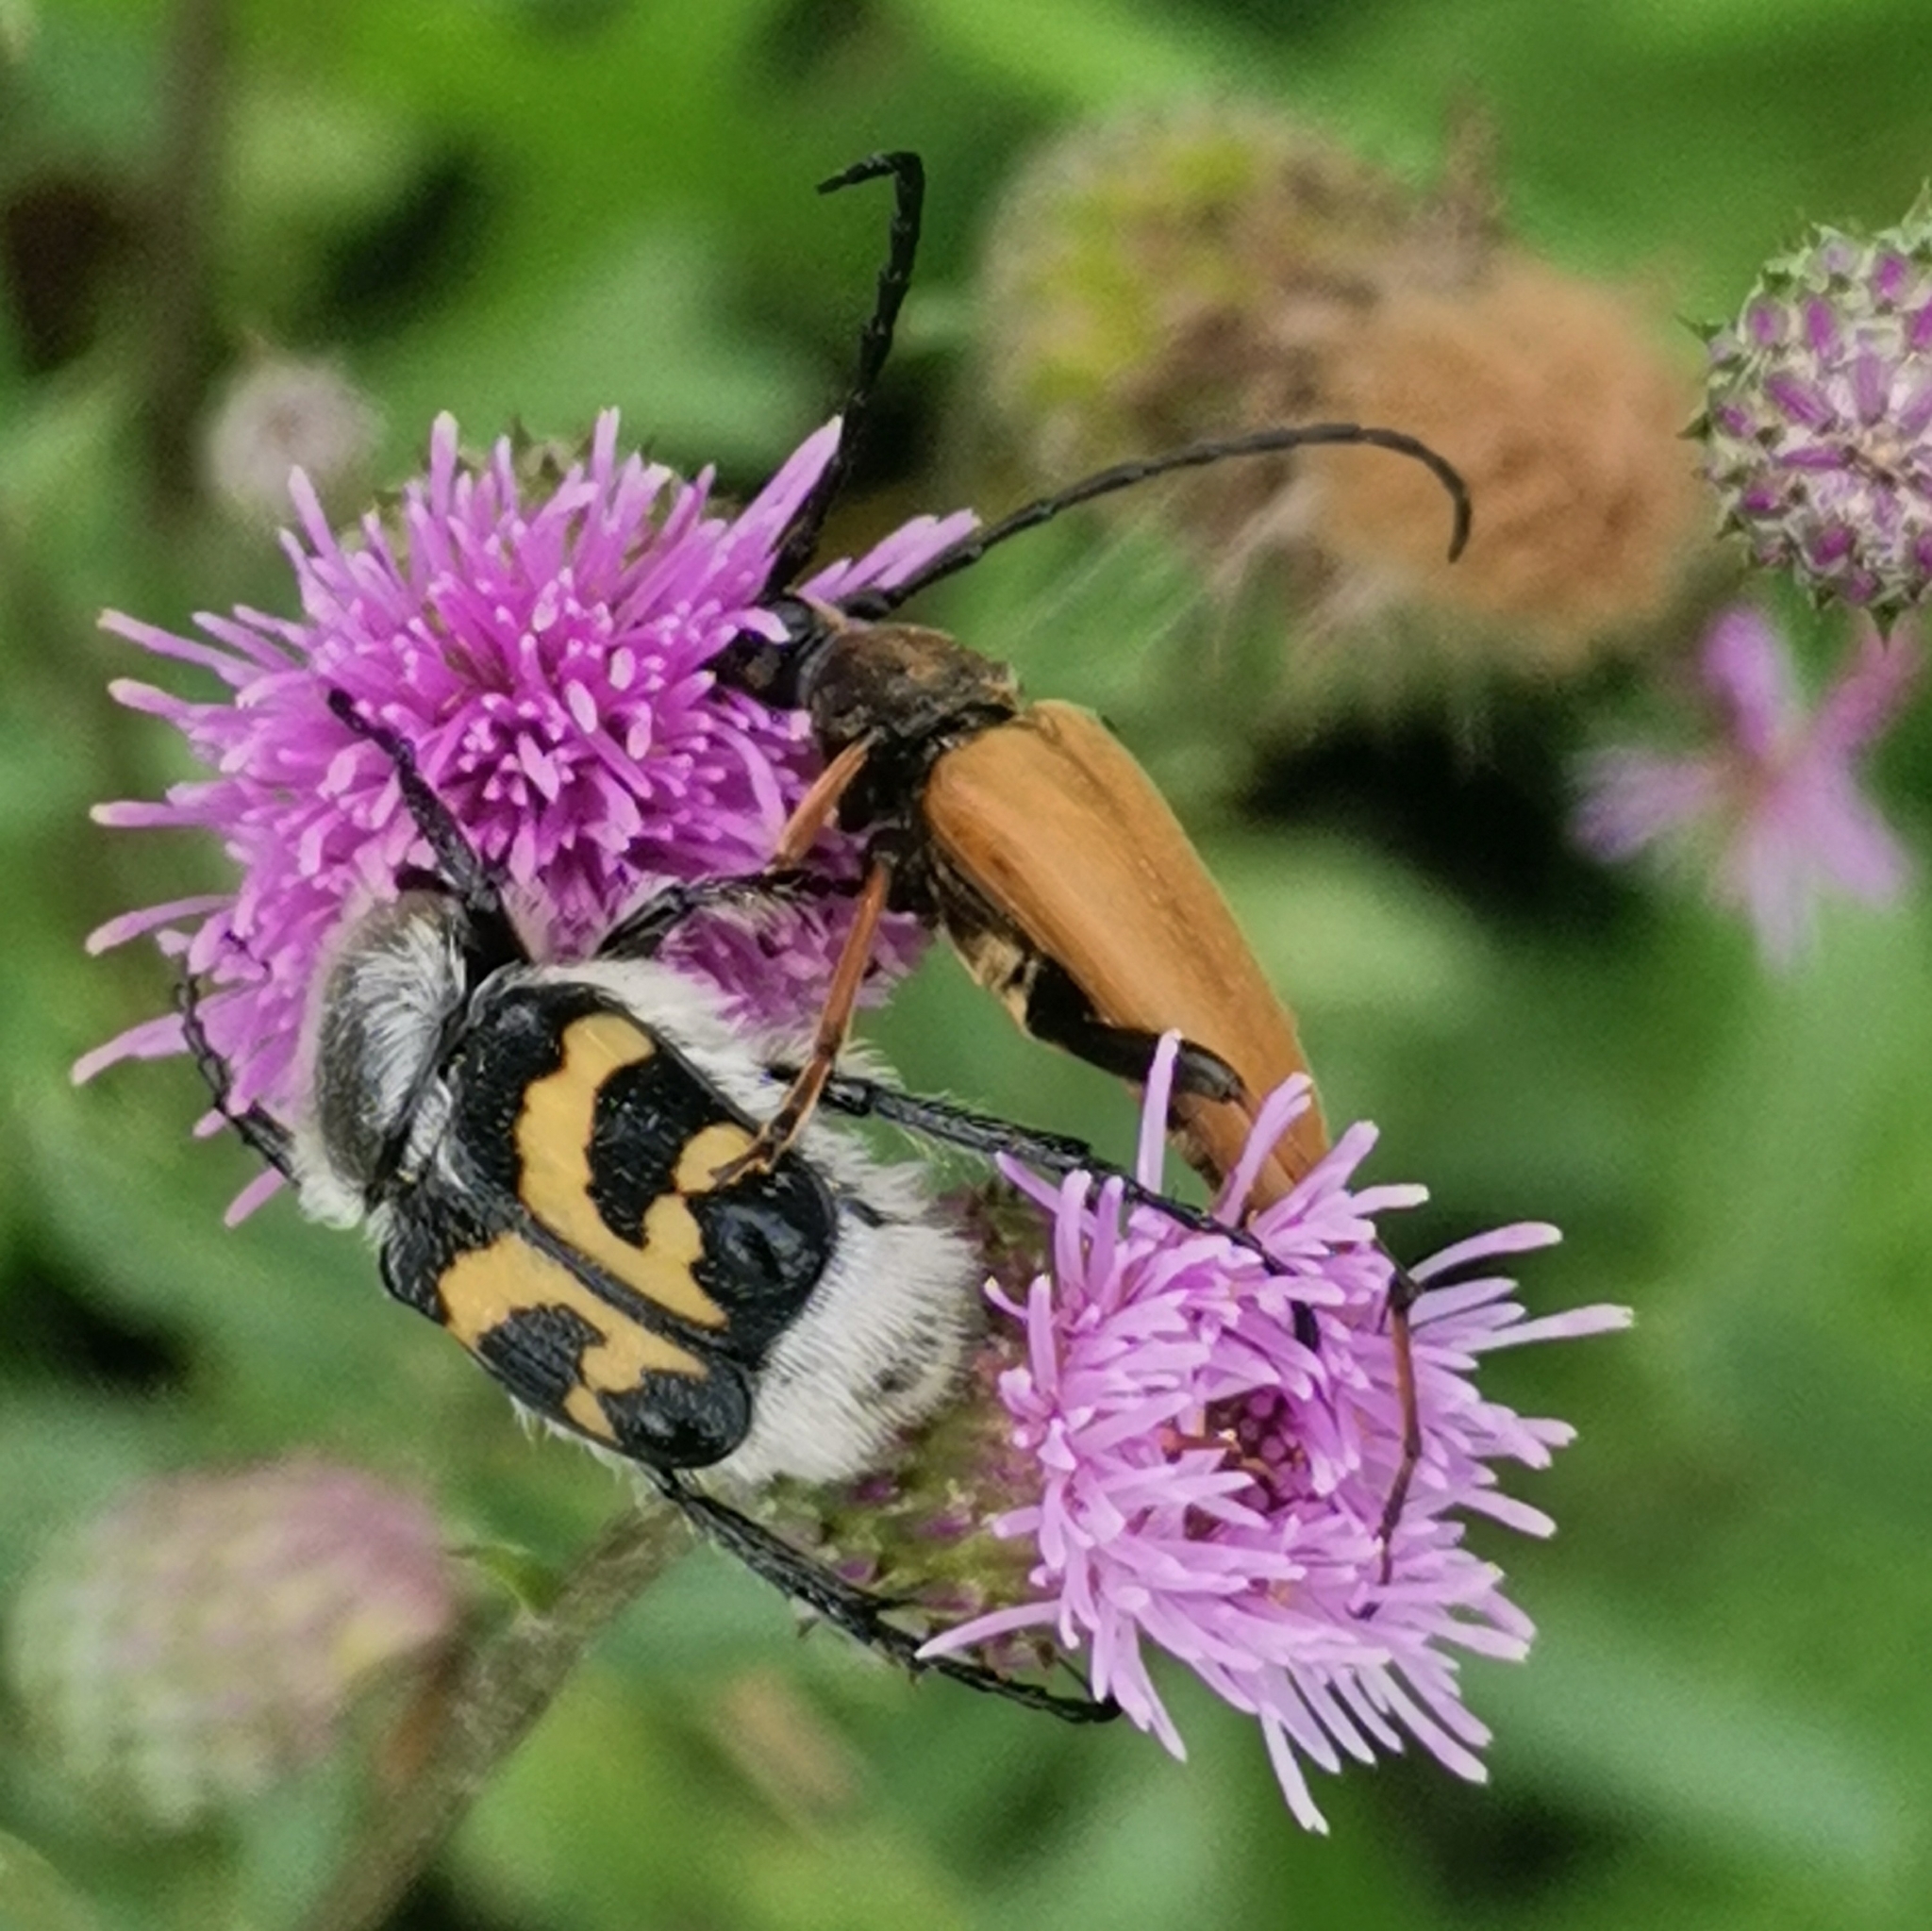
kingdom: Animalia
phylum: Arthropoda
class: Insecta
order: Coleoptera
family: Scarabaeidae
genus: Trichius
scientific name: Trichius fasciatus
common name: Bee beetle
